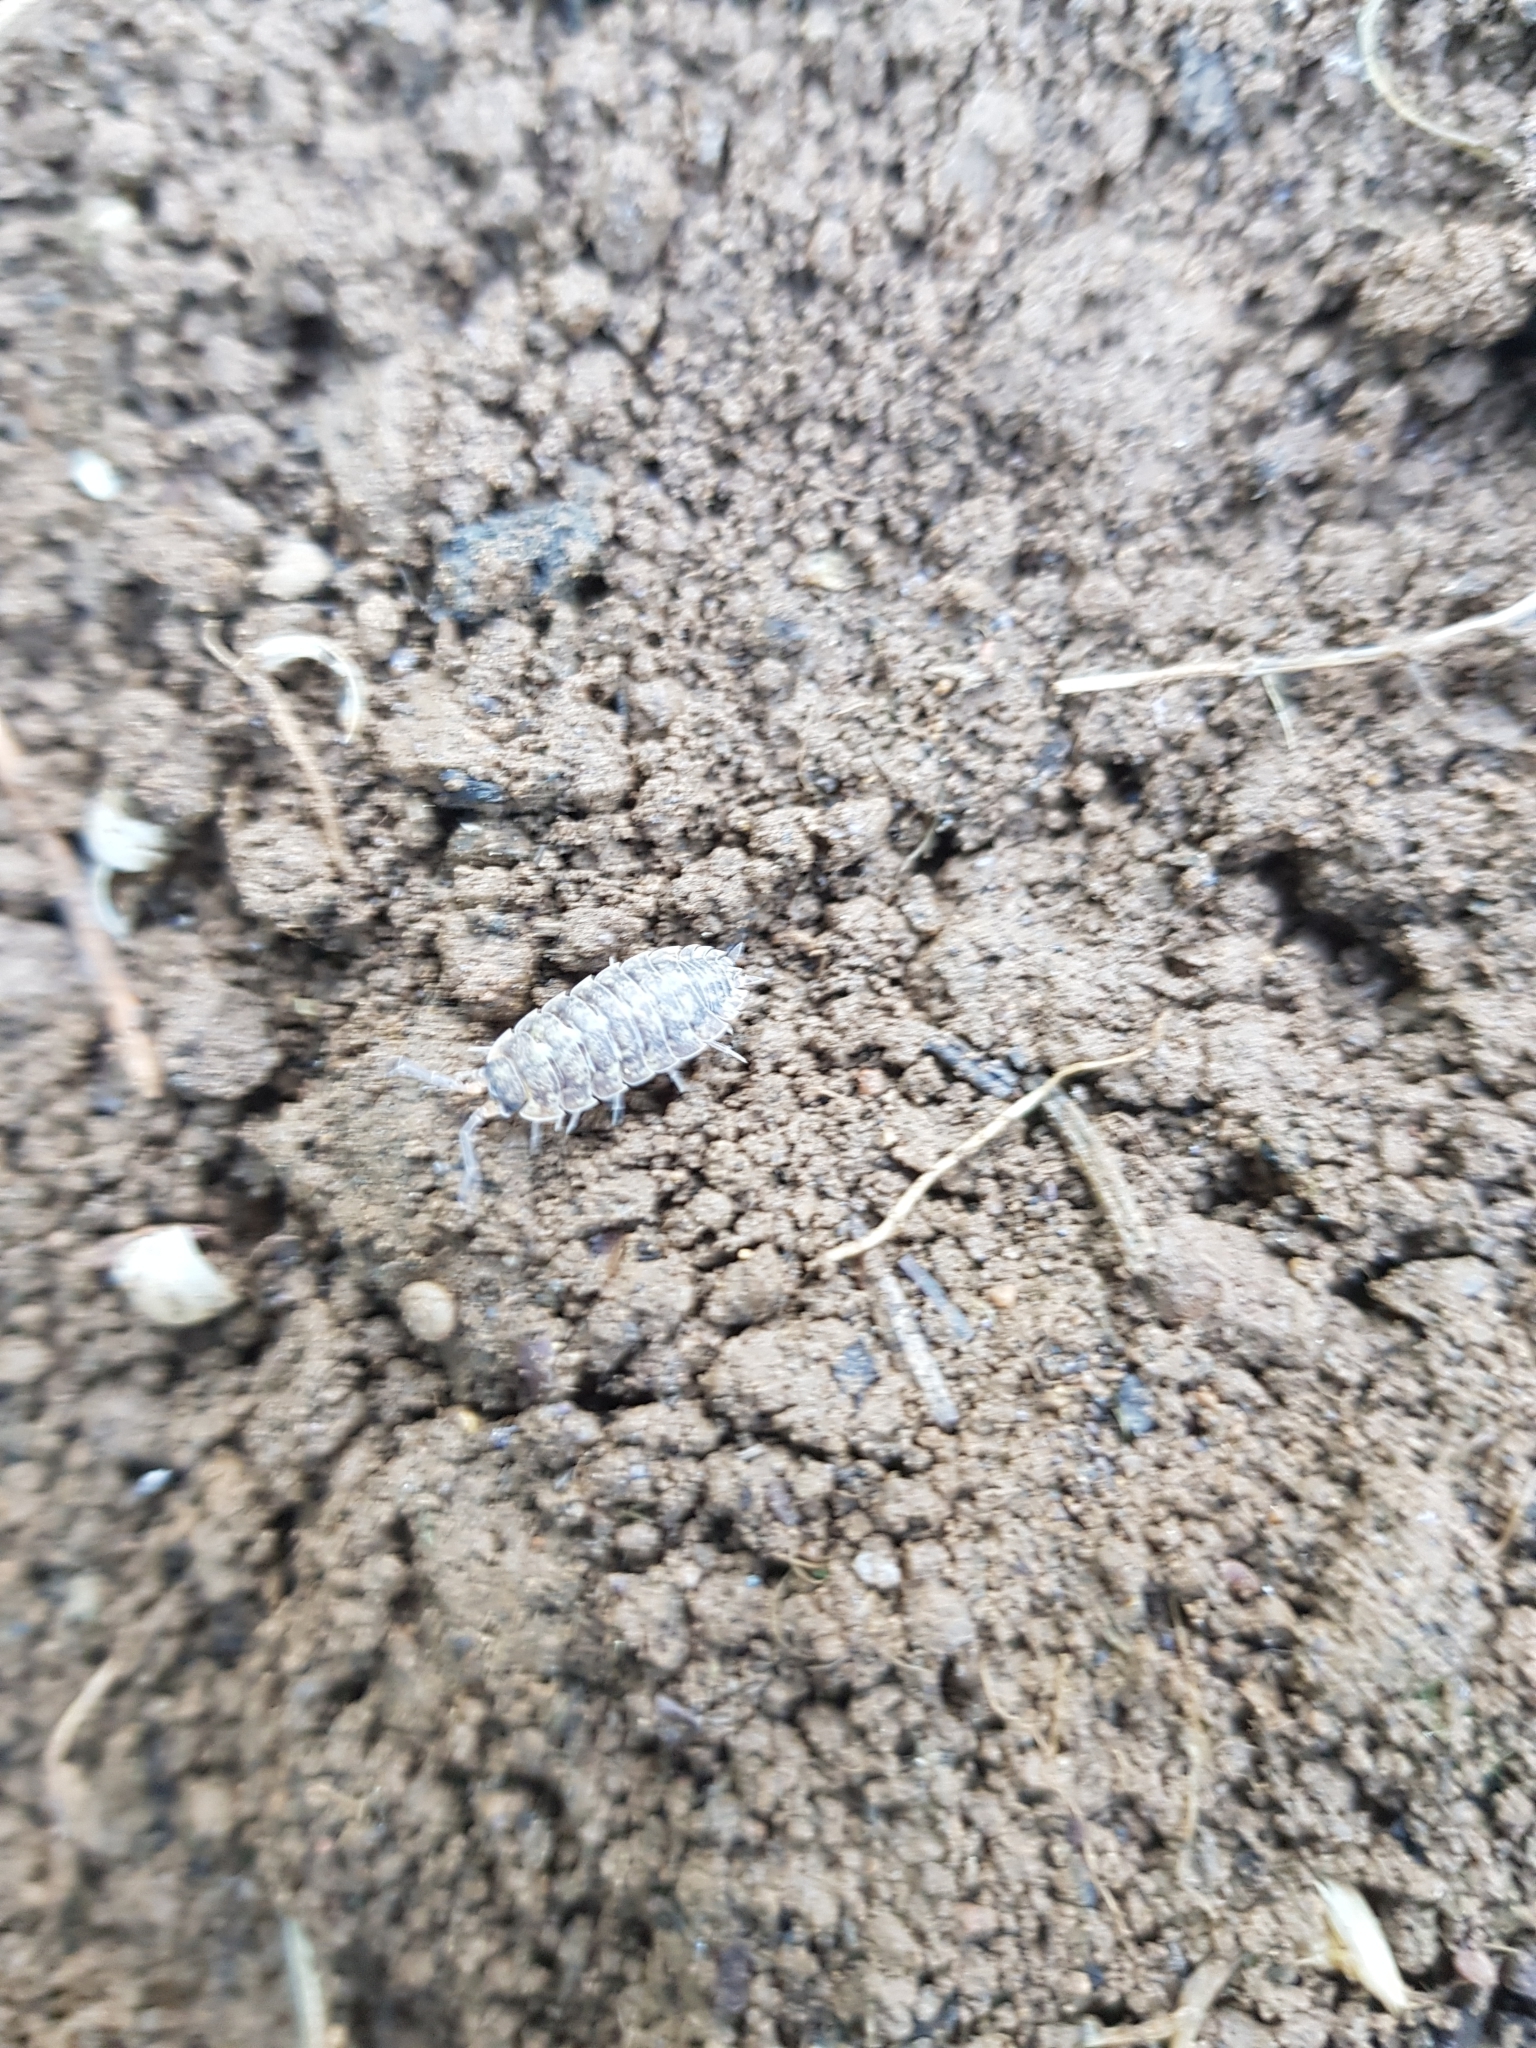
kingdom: Animalia
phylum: Arthropoda
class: Malacostraca
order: Isopoda
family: Porcellionidae
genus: Porcellio
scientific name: Porcellio scaber
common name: Common rough woodlouse
